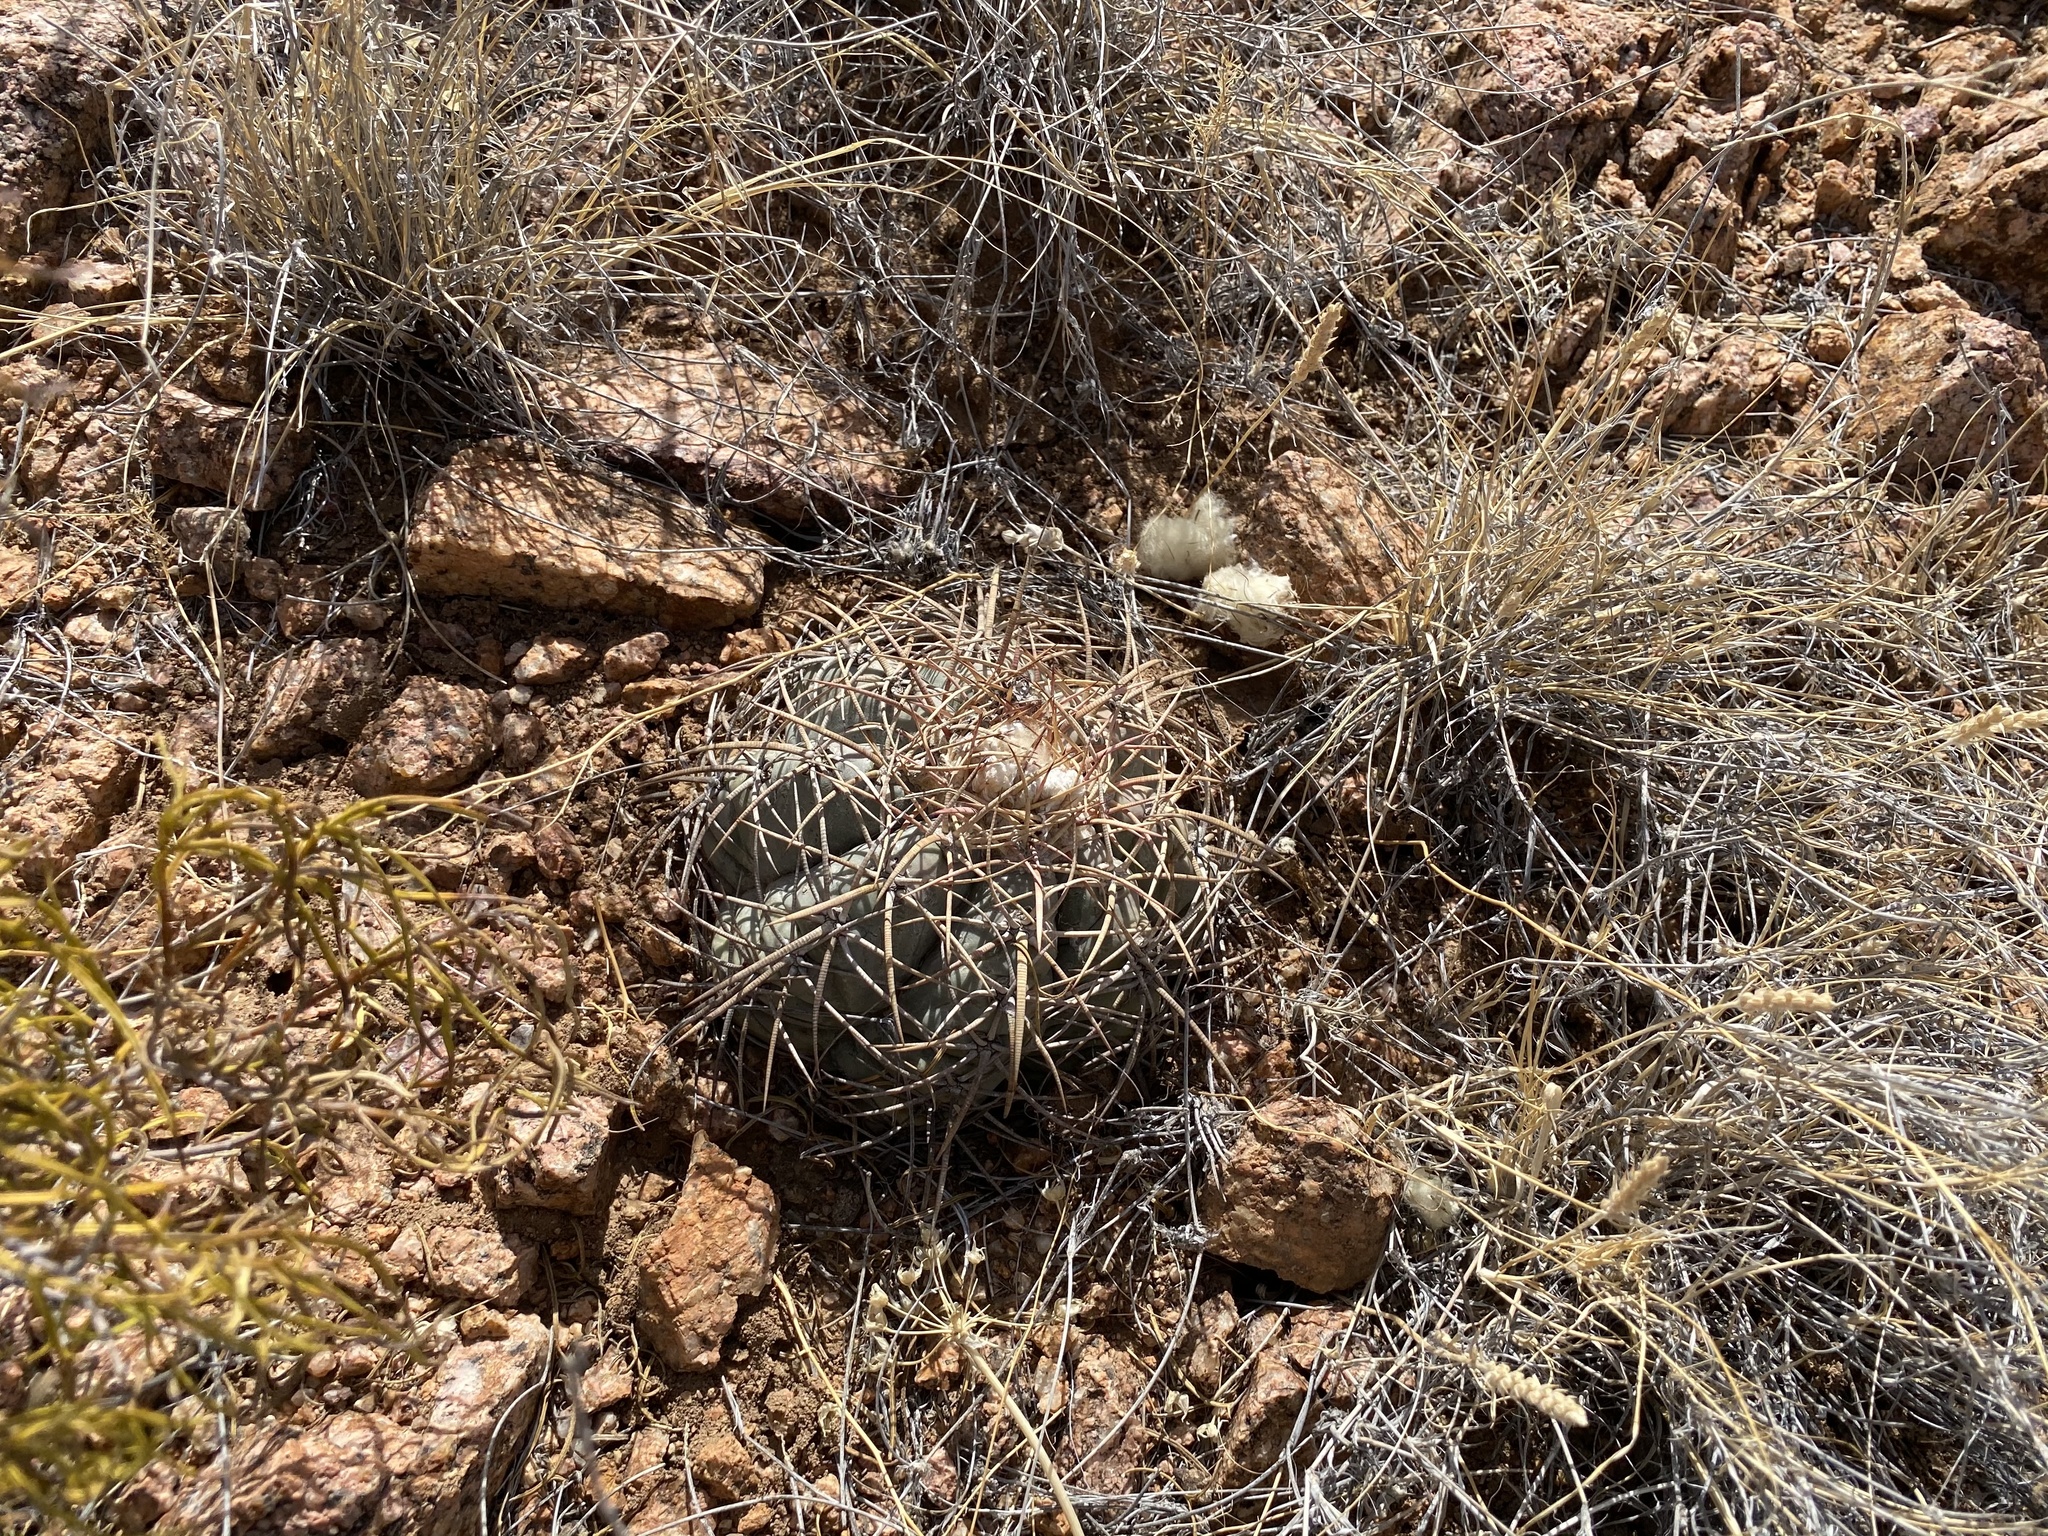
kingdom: Plantae
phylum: Tracheophyta
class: Magnoliopsida
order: Caryophyllales
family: Cactaceae
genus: Echinocactus
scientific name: Echinocactus horizonthalonius
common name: Devilshead
